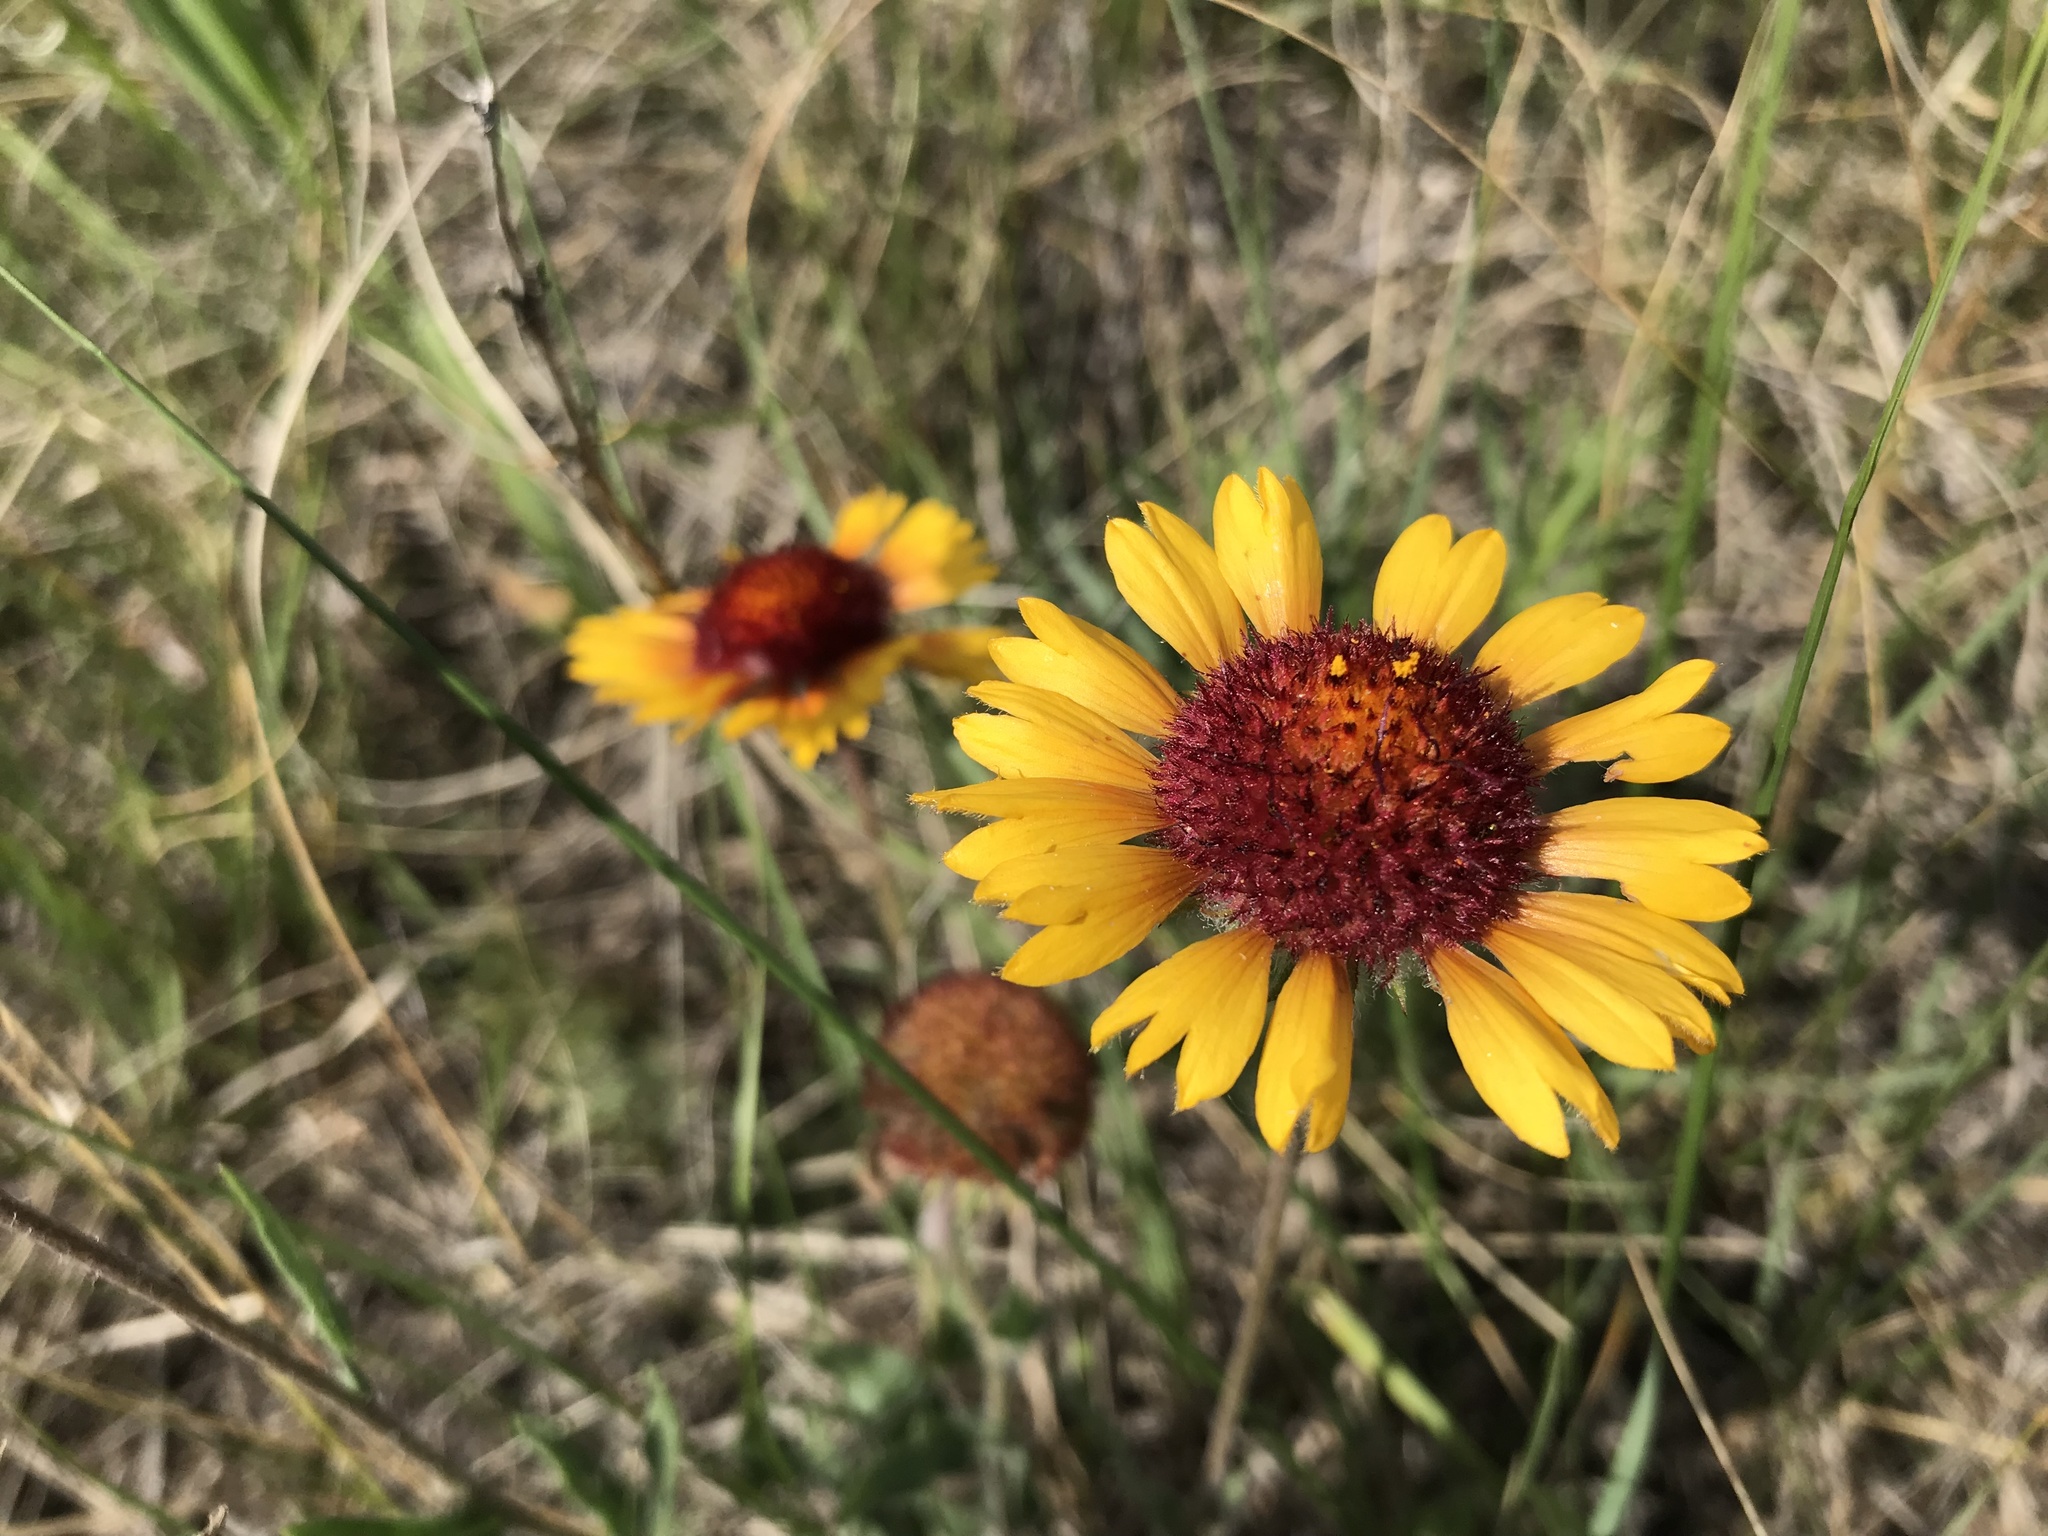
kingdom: Plantae
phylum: Tracheophyta
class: Magnoliopsida
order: Asterales
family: Asteraceae
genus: Gaillardia
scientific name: Gaillardia aristata
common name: Blanket-flower
